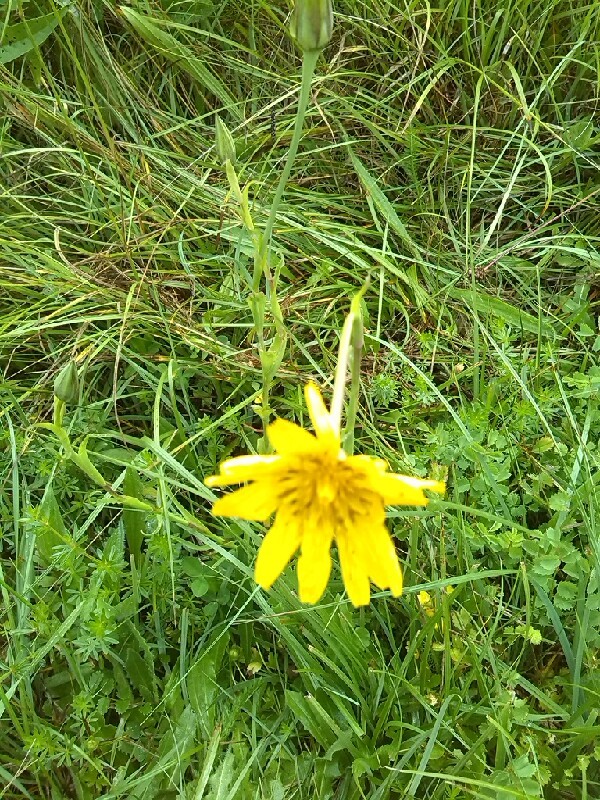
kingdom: Plantae
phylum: Tracheophyta
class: Magnoliopsida
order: Asterales
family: Asteraceae
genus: Tragopogon
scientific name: Tragopogon pratensis
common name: Goat's-beard
